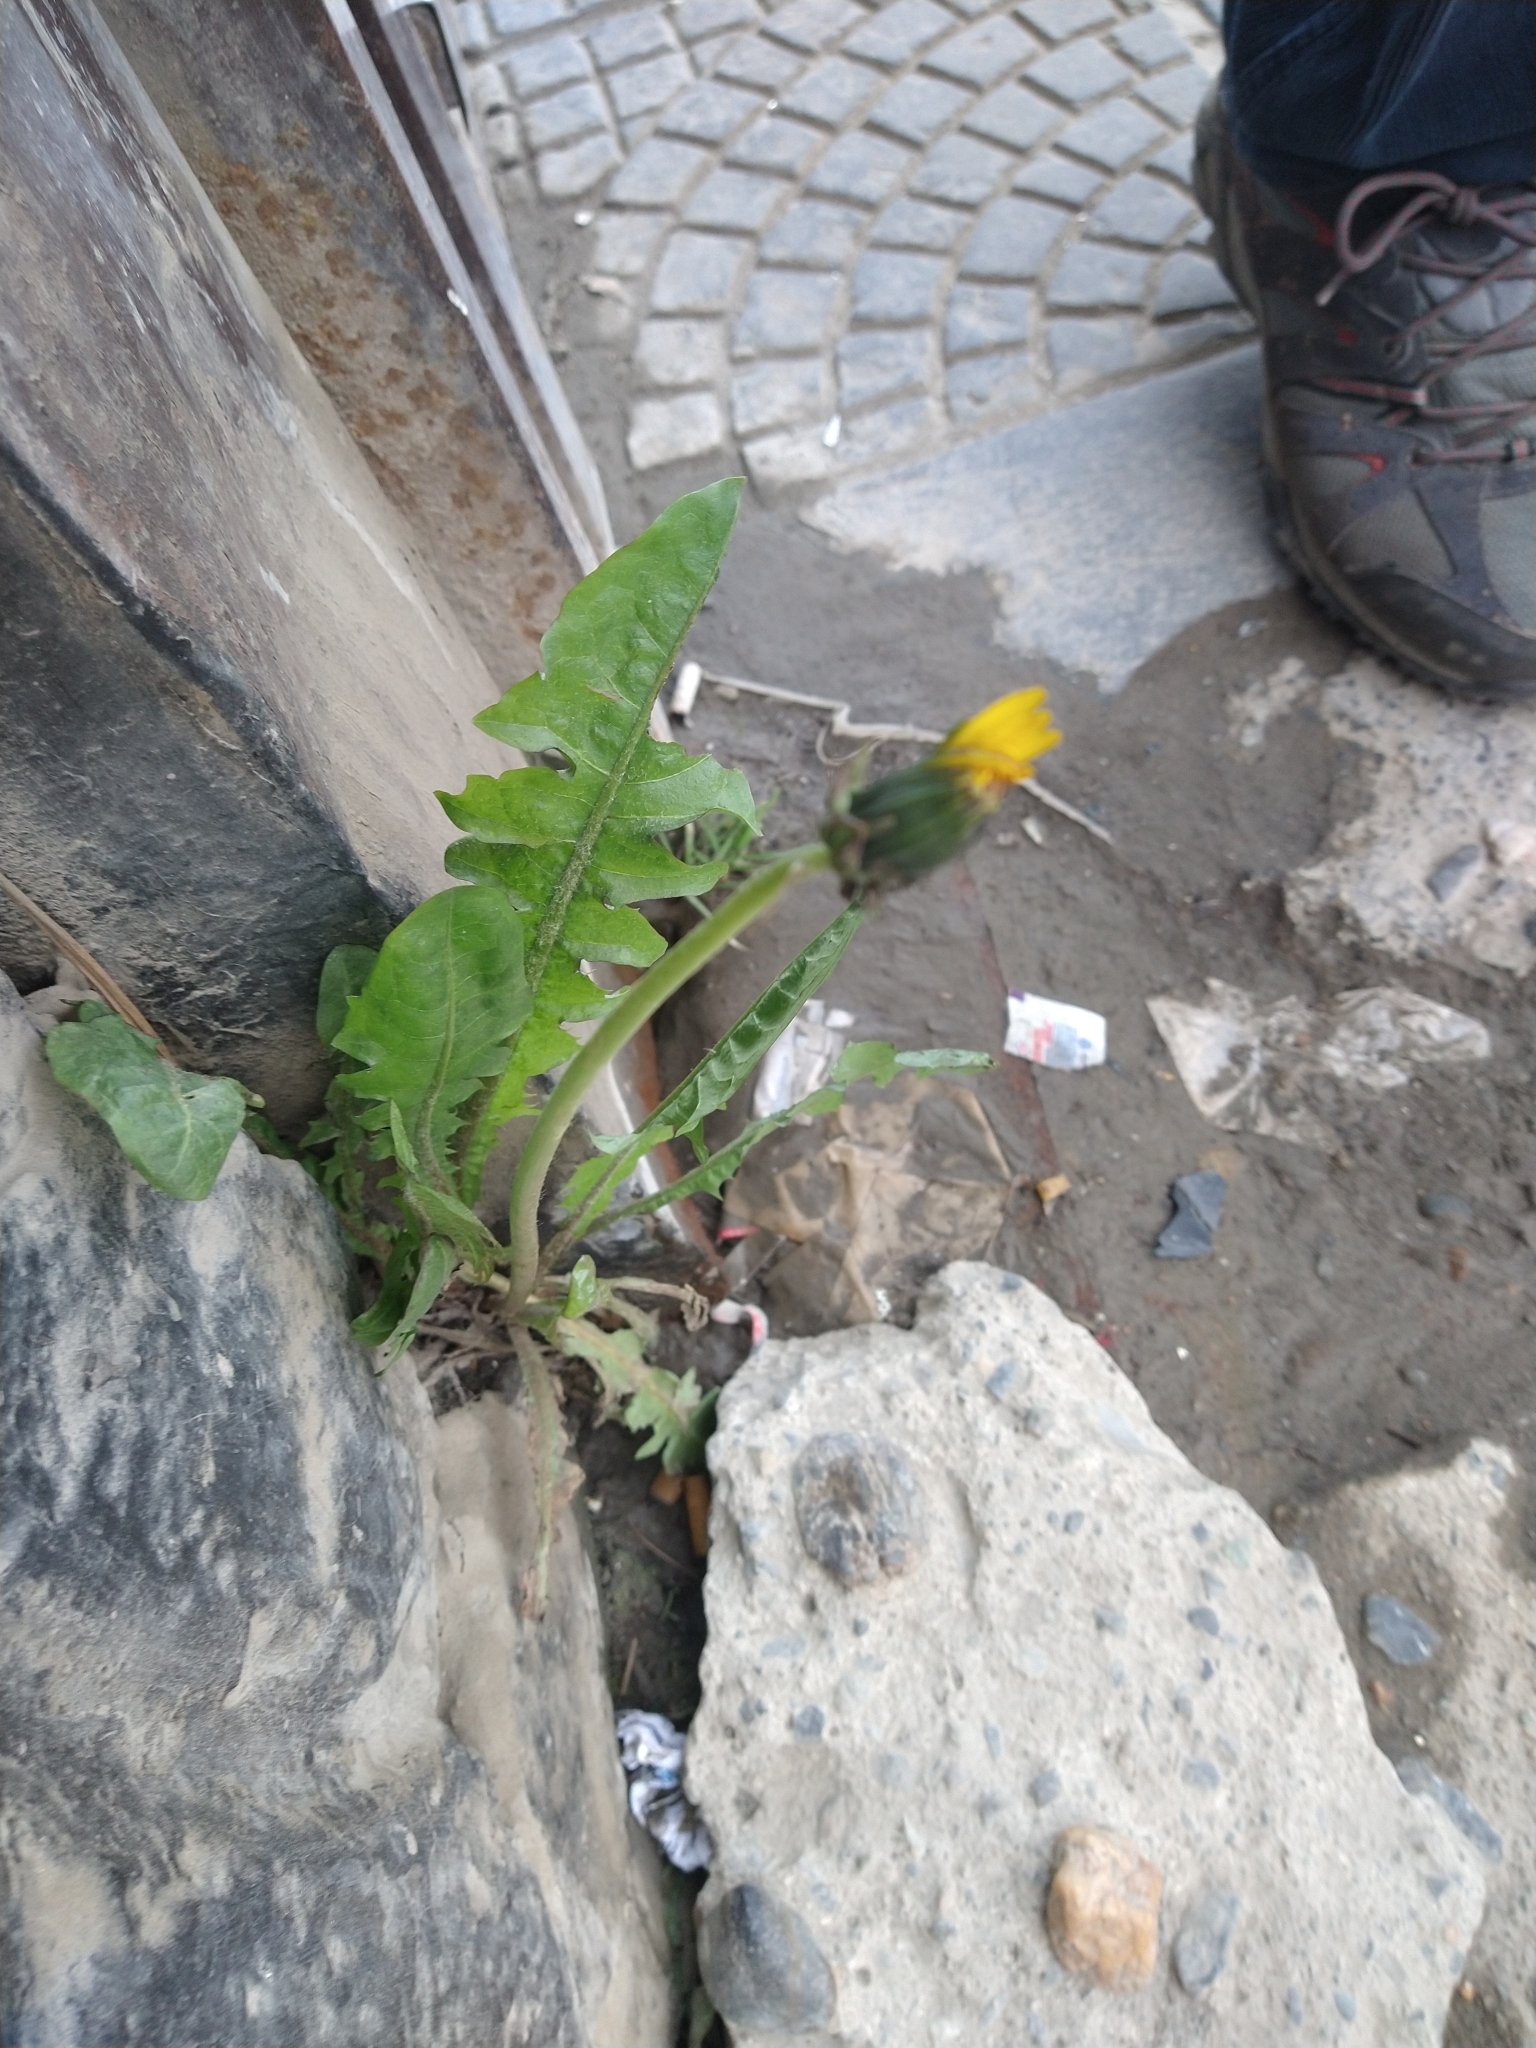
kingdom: Plantae
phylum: Tracheophyta
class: Magnoliopsida
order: Asterales
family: Asteraceae
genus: Taraxacum
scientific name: Taraxacum officinale
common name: Common dandelion
